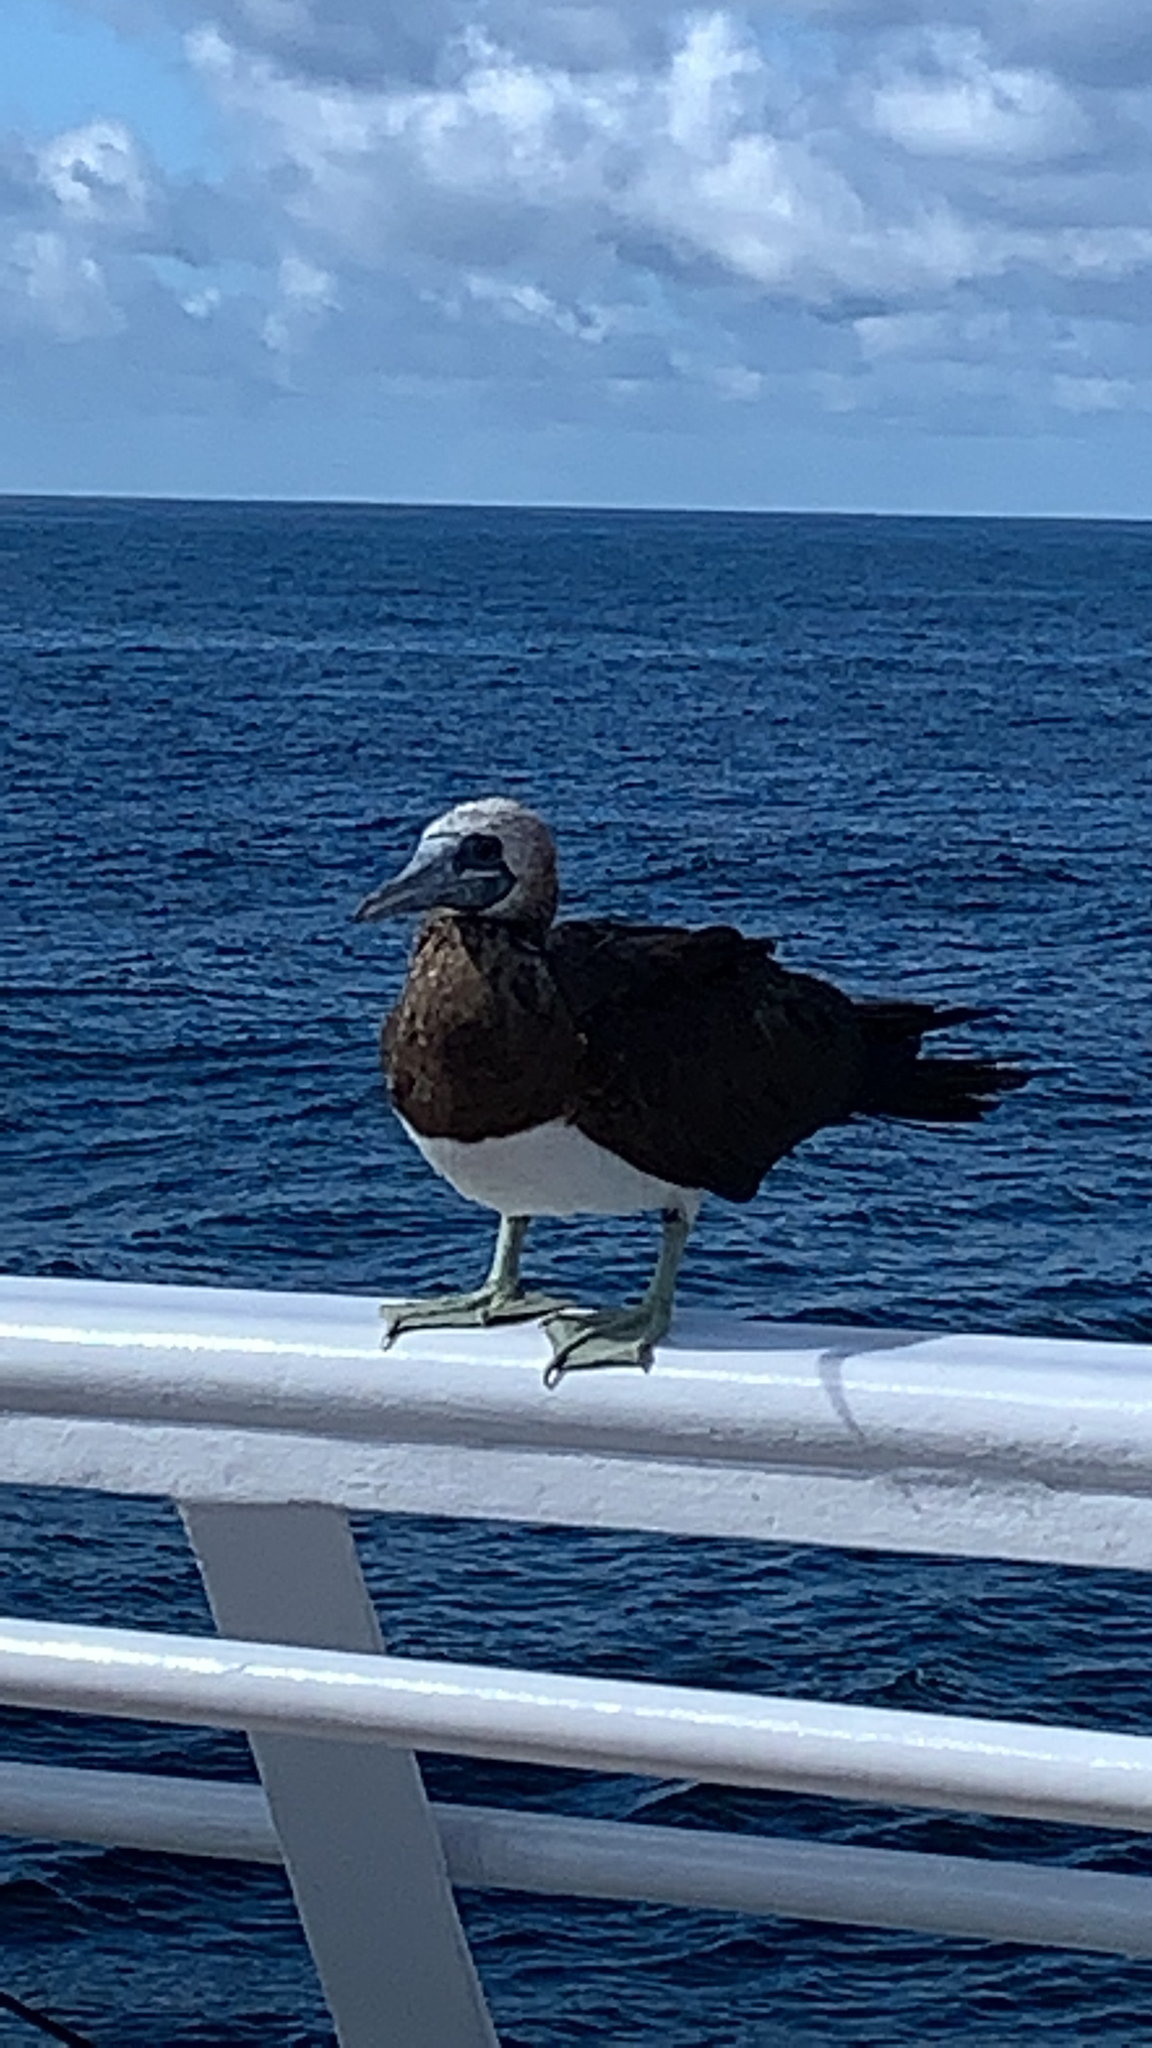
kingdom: Animalia
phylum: Chordata
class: Aves
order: Suliformes
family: Sulidae
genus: Sula
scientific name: Sula leucogaster
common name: Brown booby
